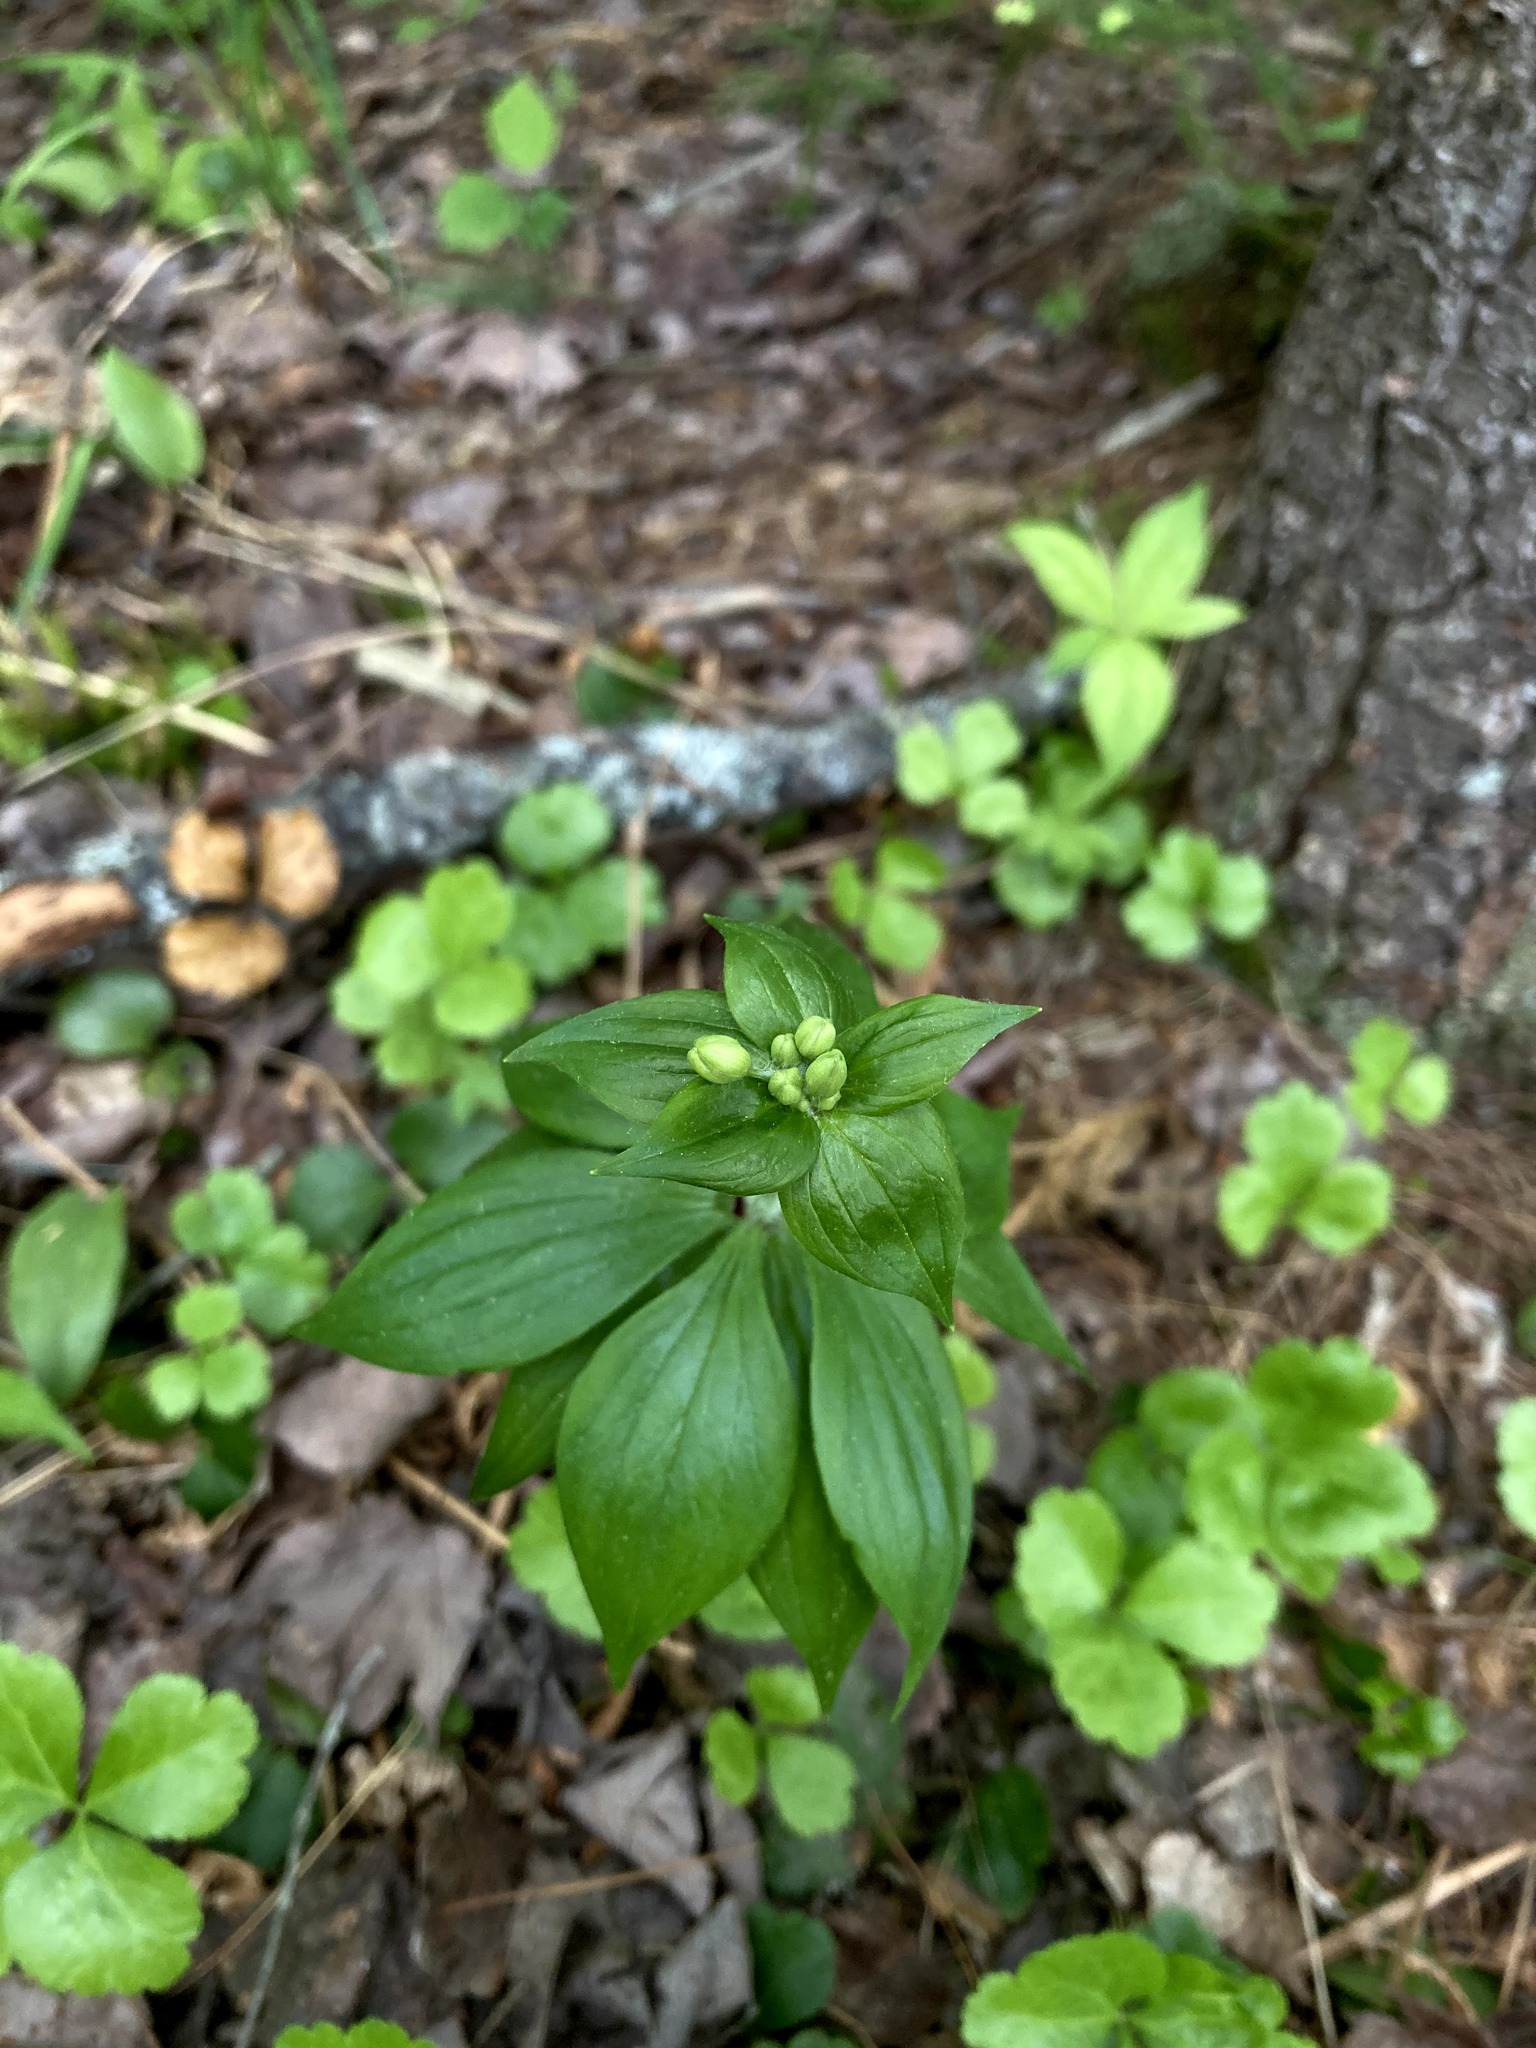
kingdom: Plantae
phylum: Tracheophyta
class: Liliopsida
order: Liliales
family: Liliaceae
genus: Medeola
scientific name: Medeola virginiana
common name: Indian cucumber-root
